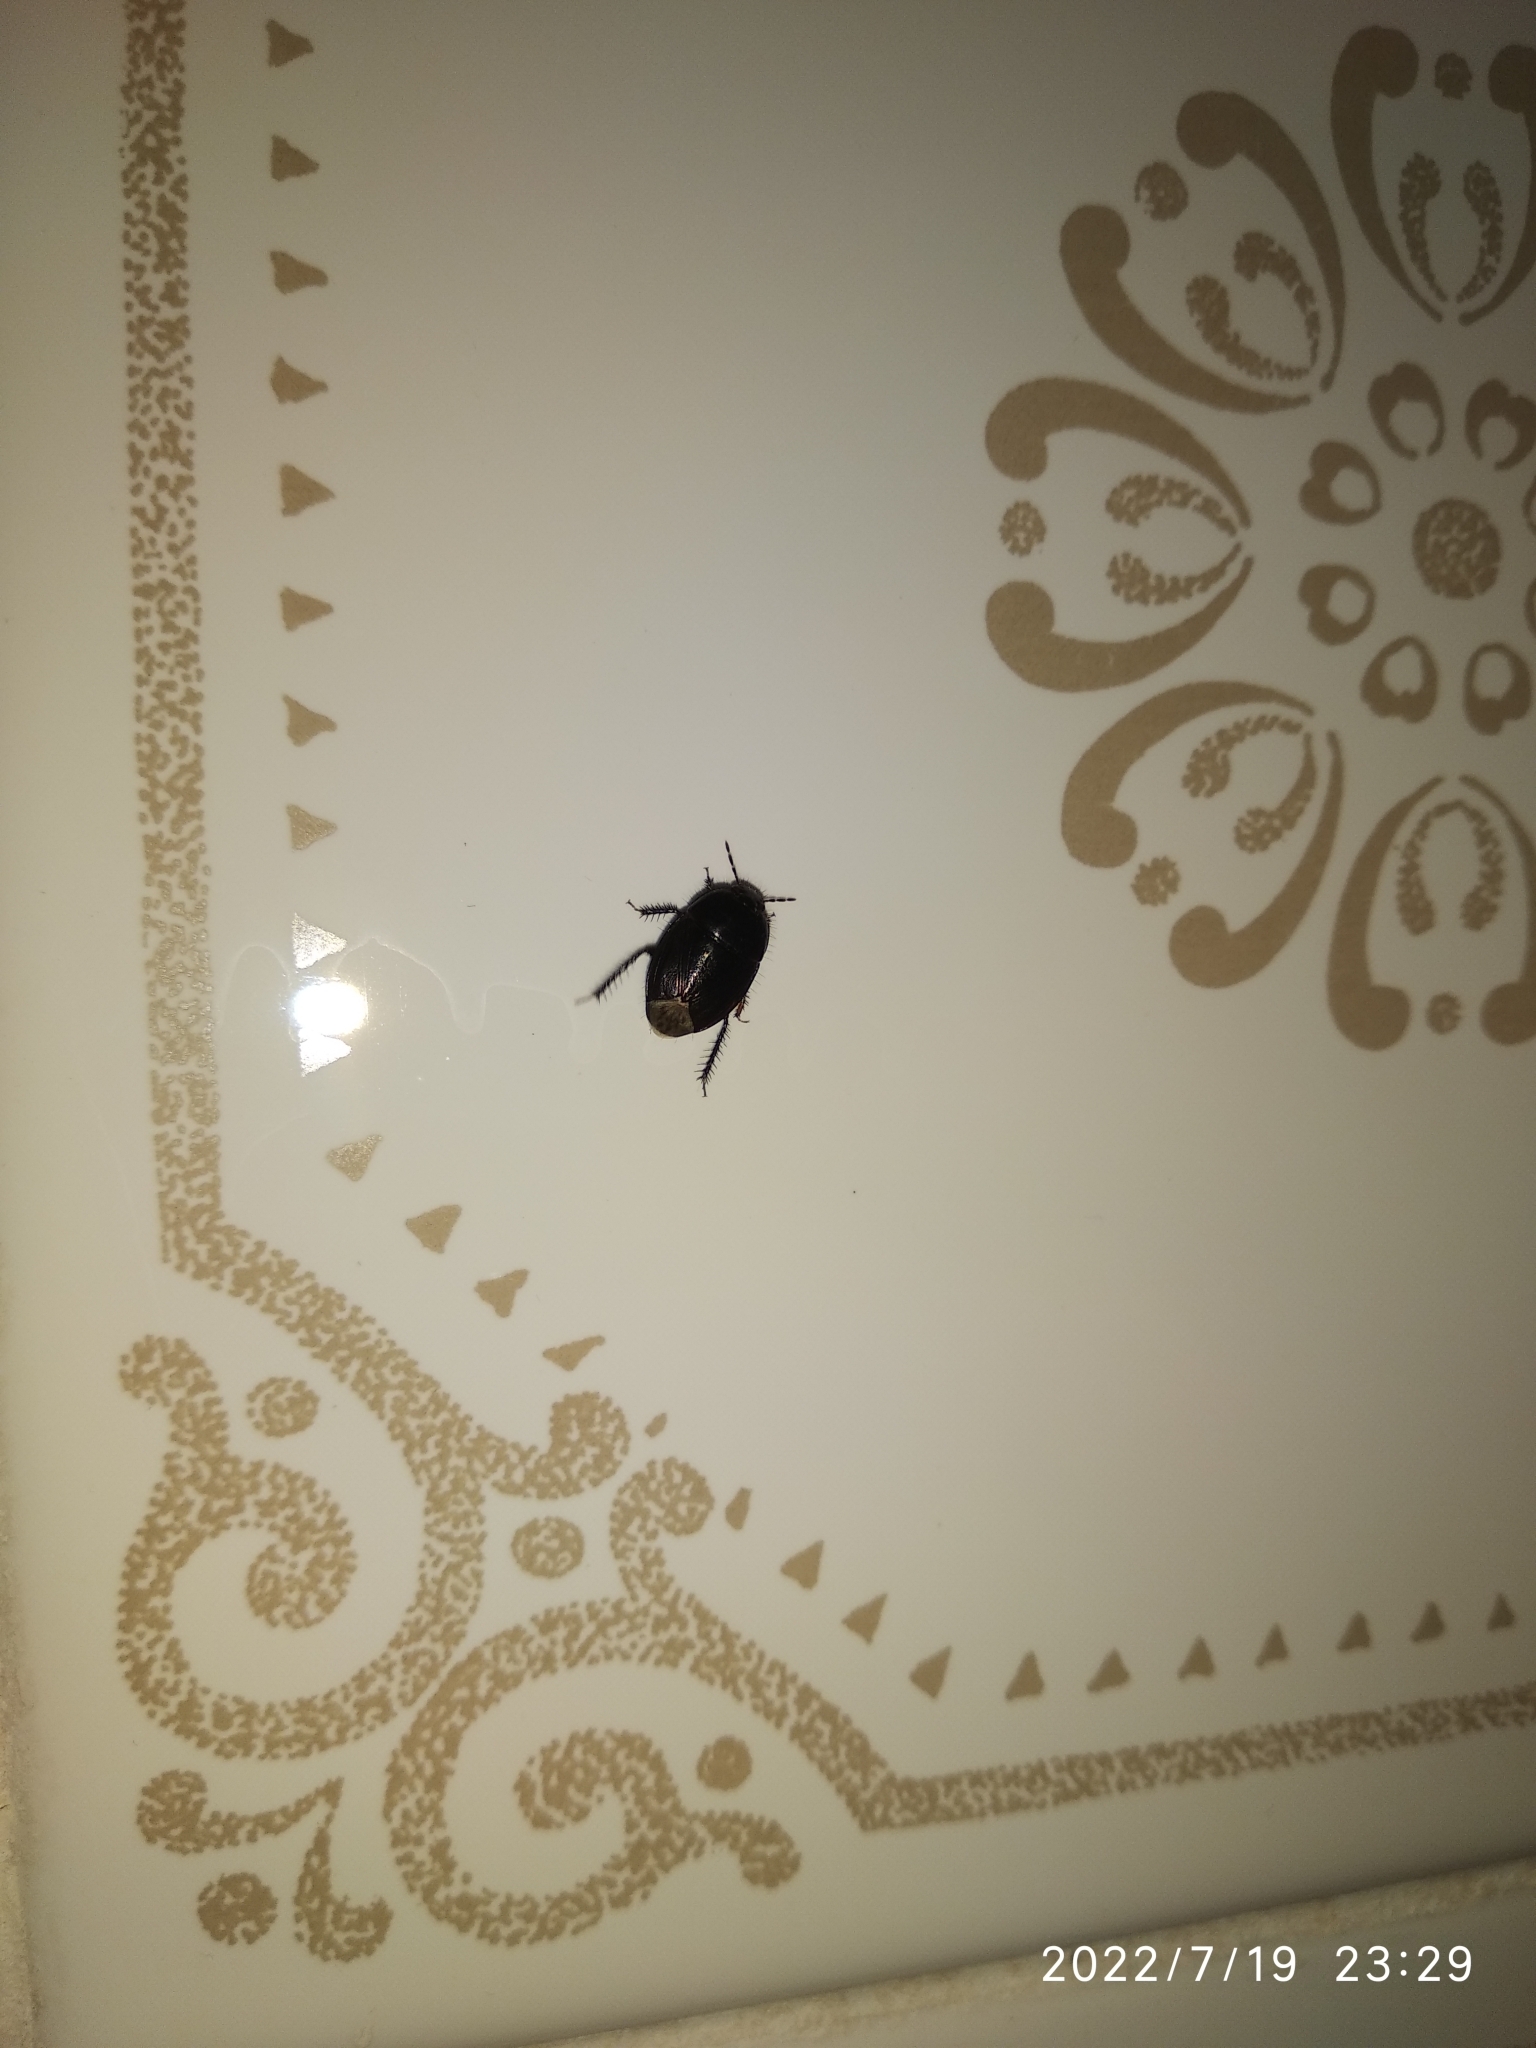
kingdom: Animalia
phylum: Arthropoda
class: Insecta
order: Hemiptera
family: Cydnidae
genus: Macroscytus
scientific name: Macroscytus brunneus
